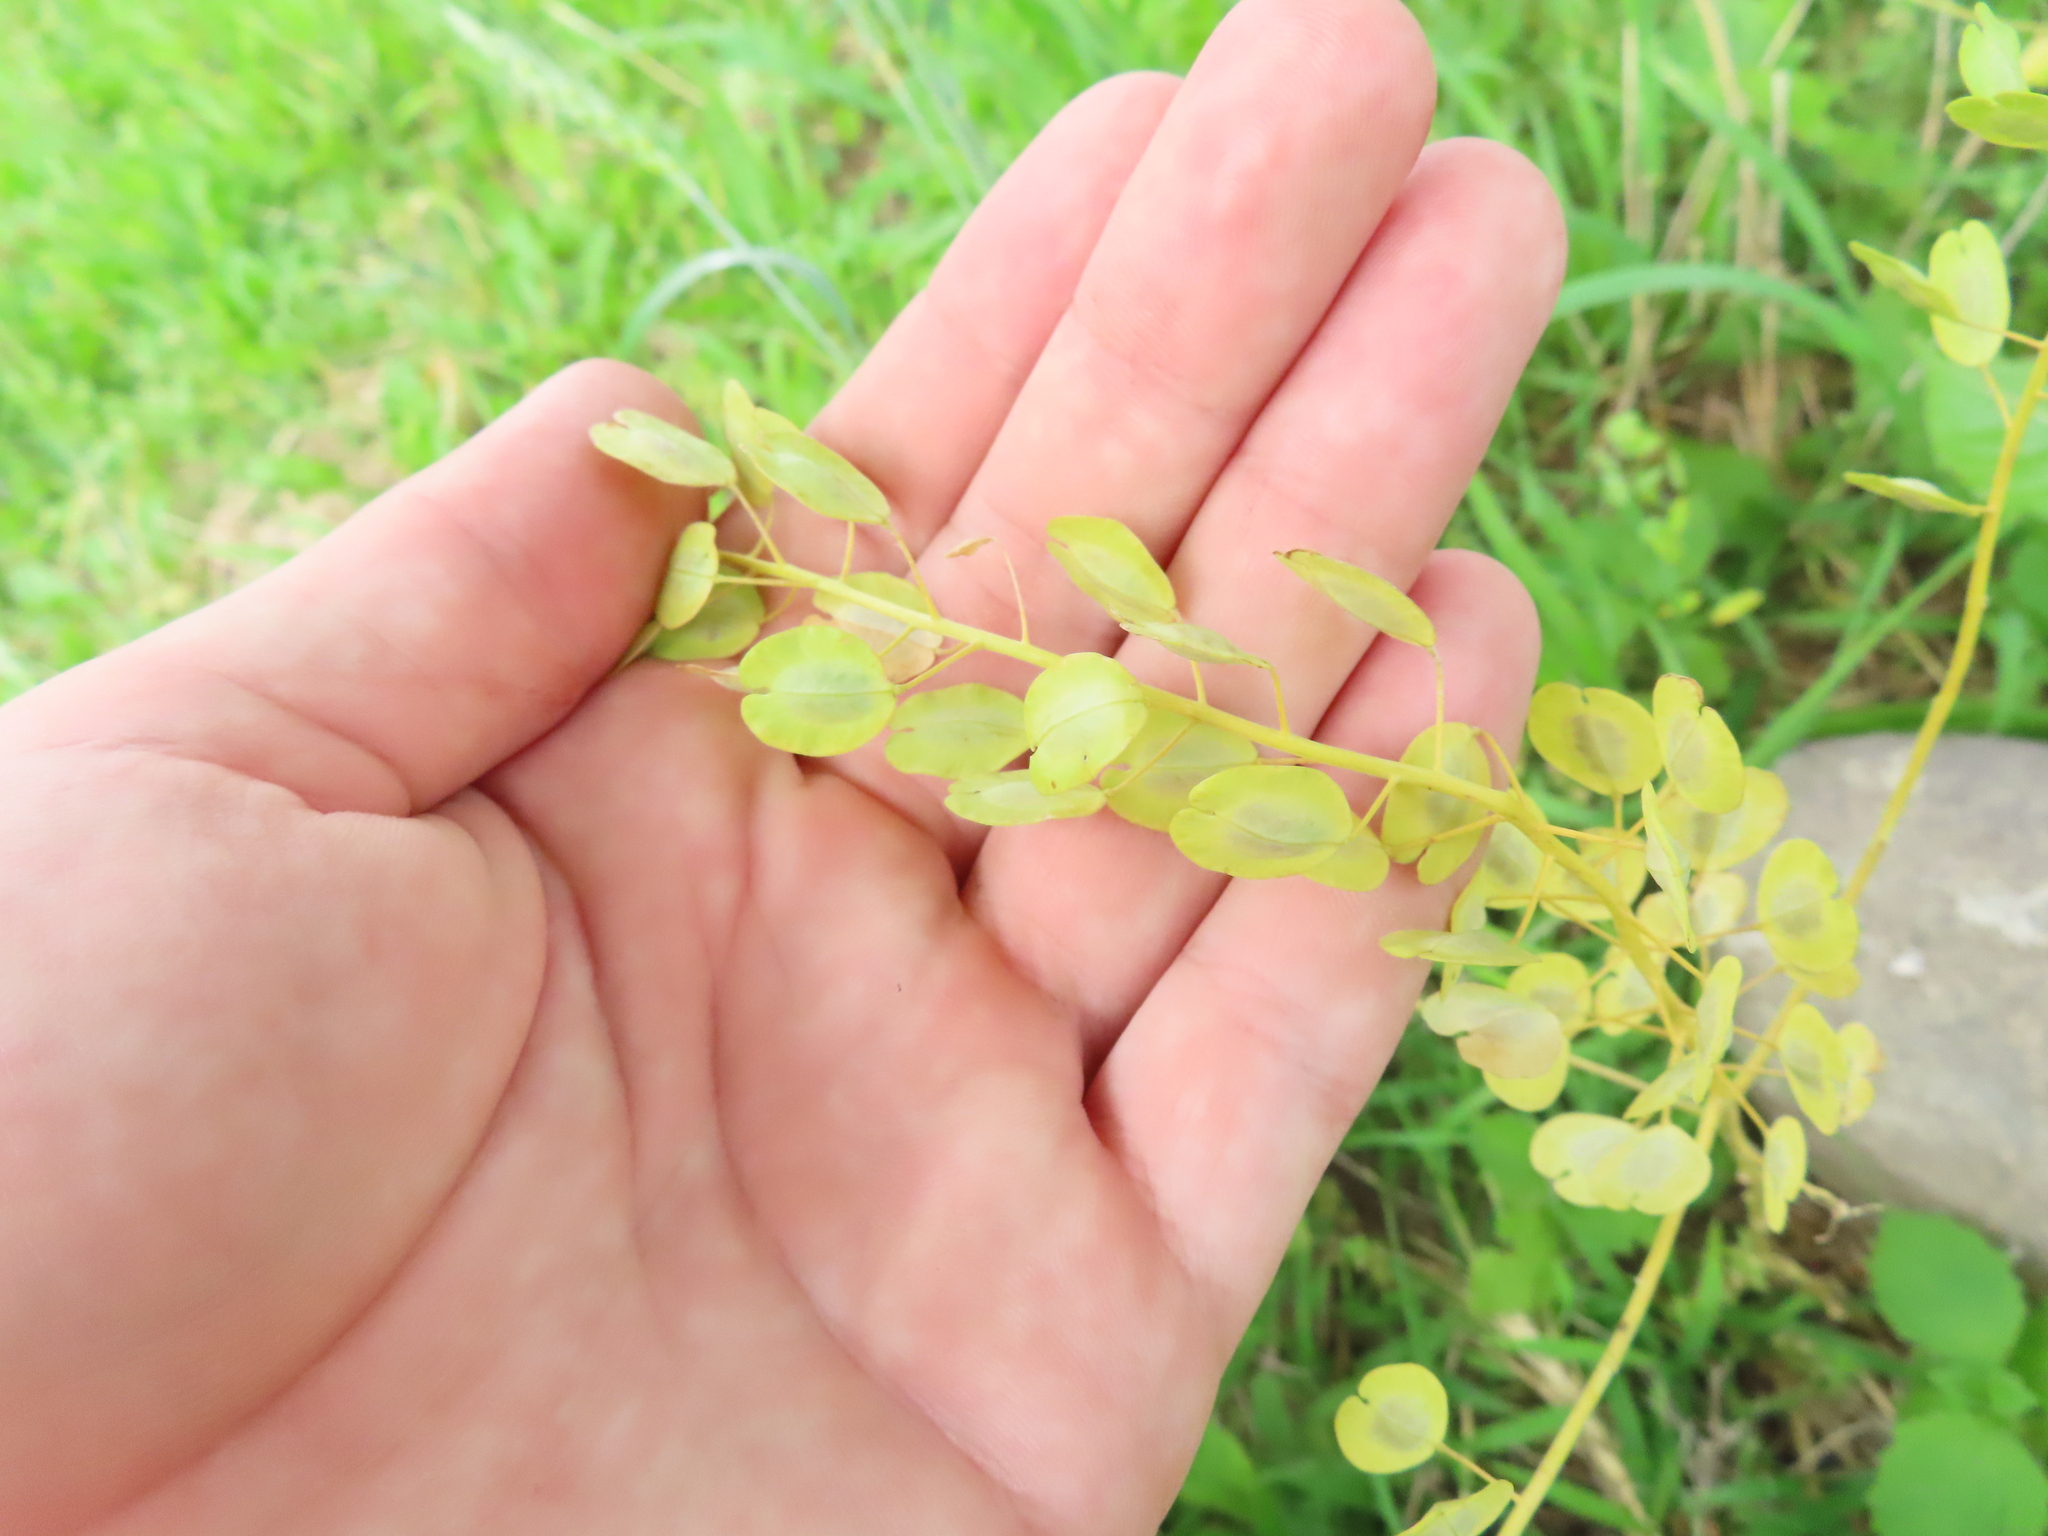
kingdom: Plantae
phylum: Tracheophyta
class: Magnoliopsida
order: Brassicales
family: Brassicaceae
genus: Thlaspi
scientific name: Thlaspi arvense
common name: Field pennycress
